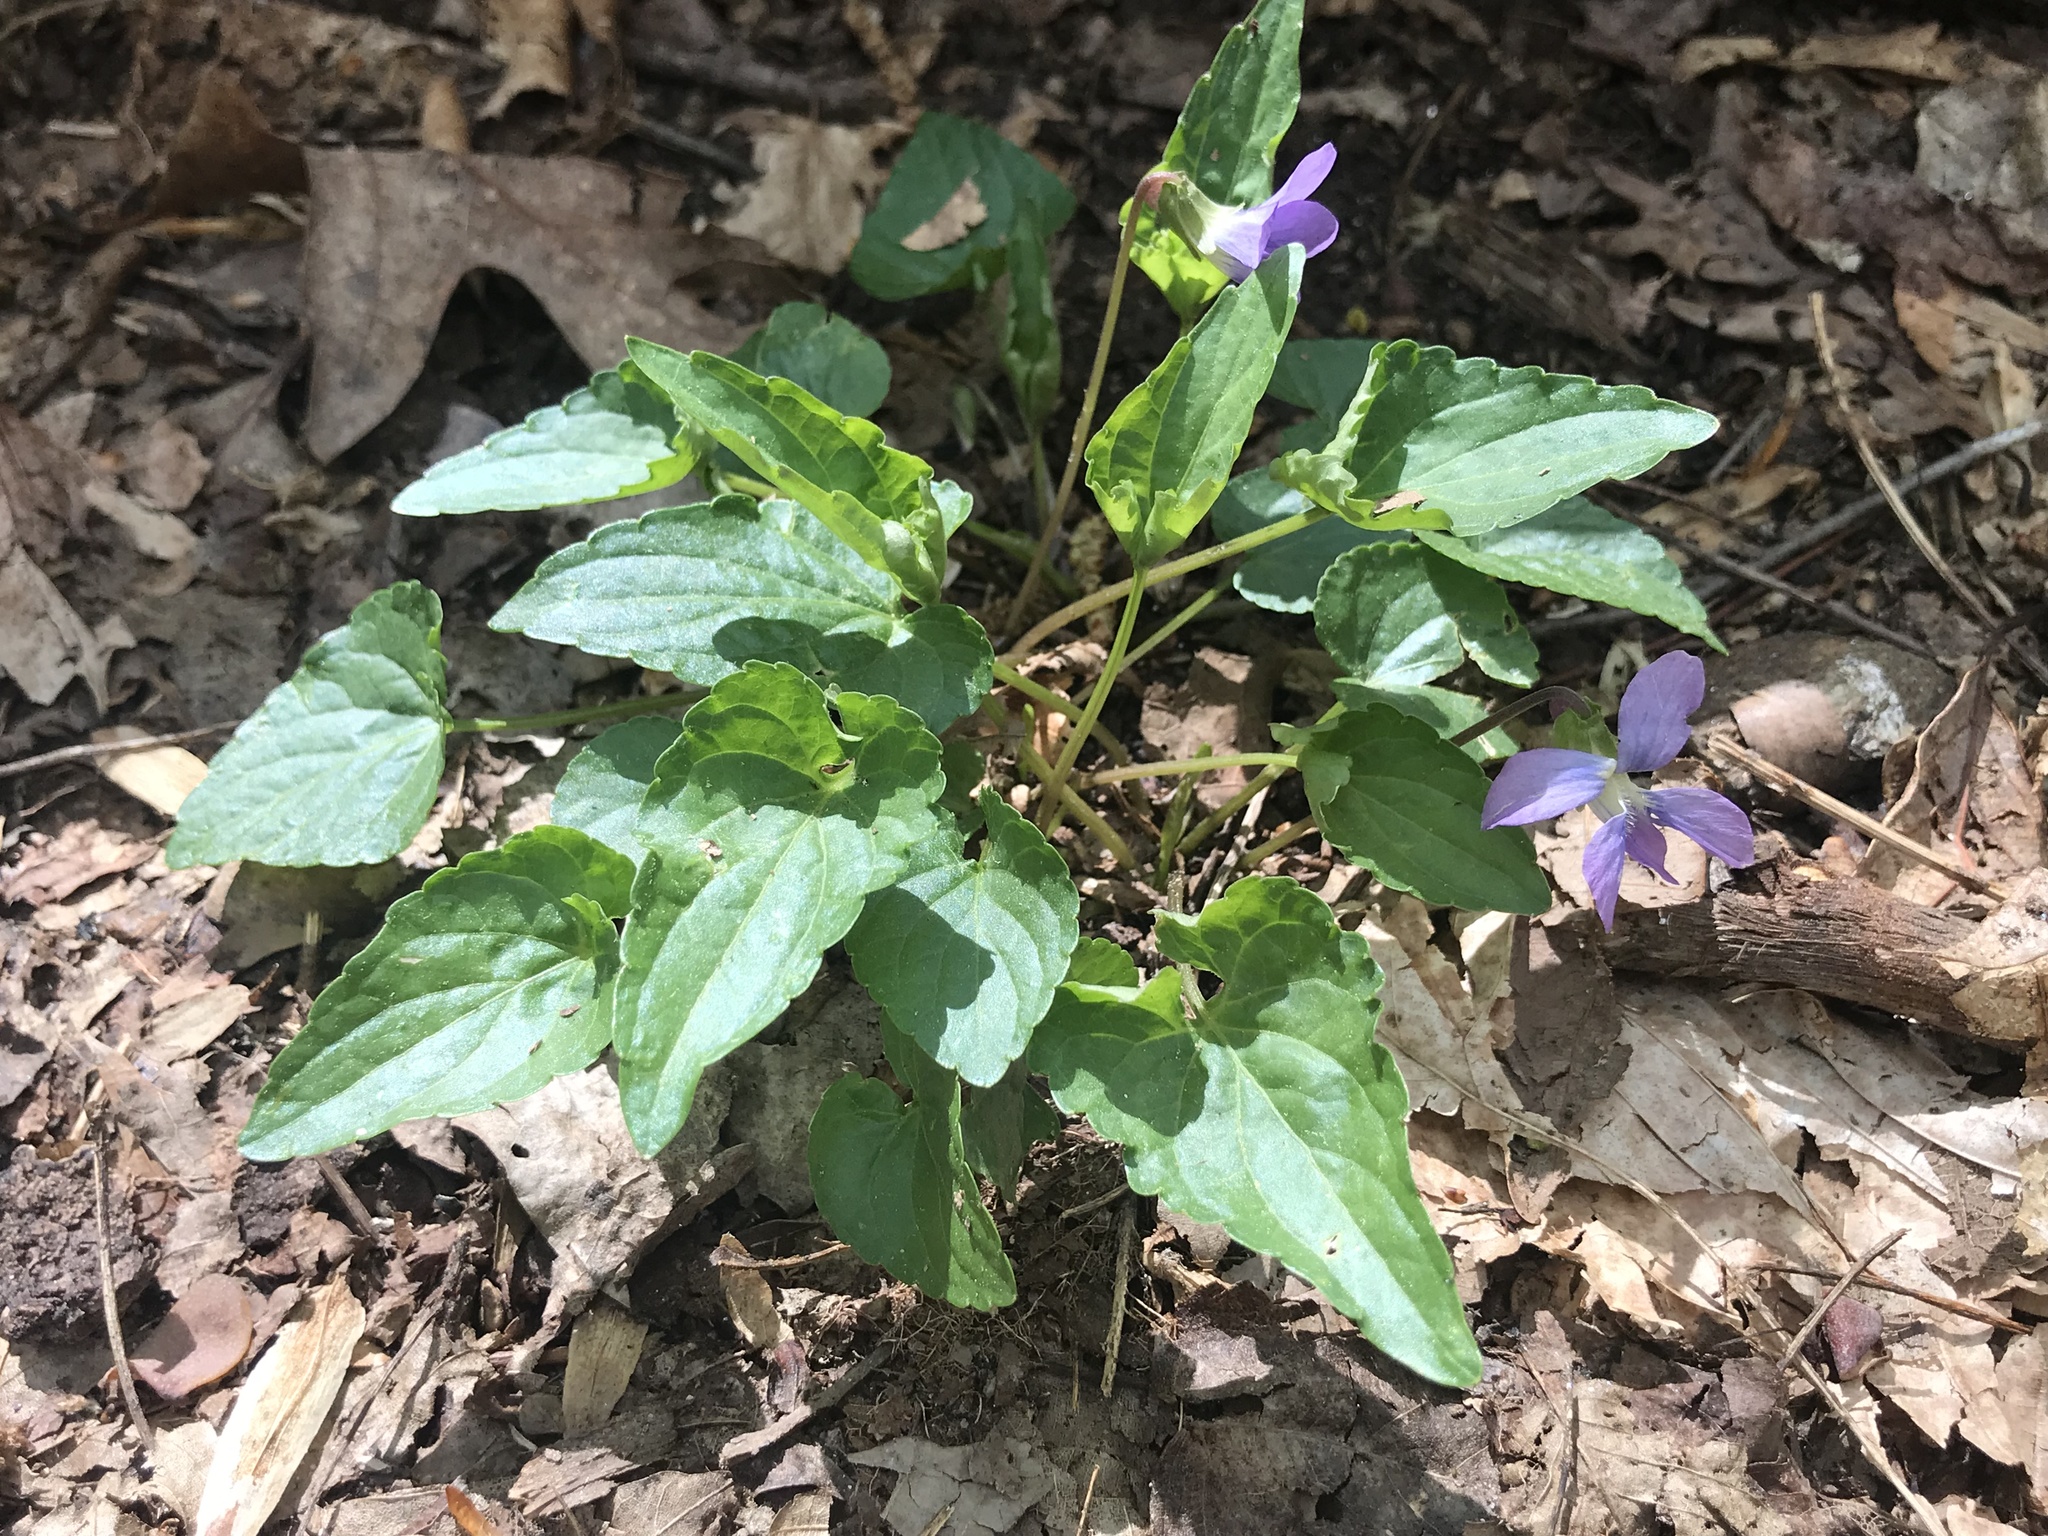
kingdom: Plantae
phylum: Tracheophyta
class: Magnoliopsida
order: Malpighiales
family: Violaceae
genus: Viola
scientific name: Viola sororia
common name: Dooryard violet
